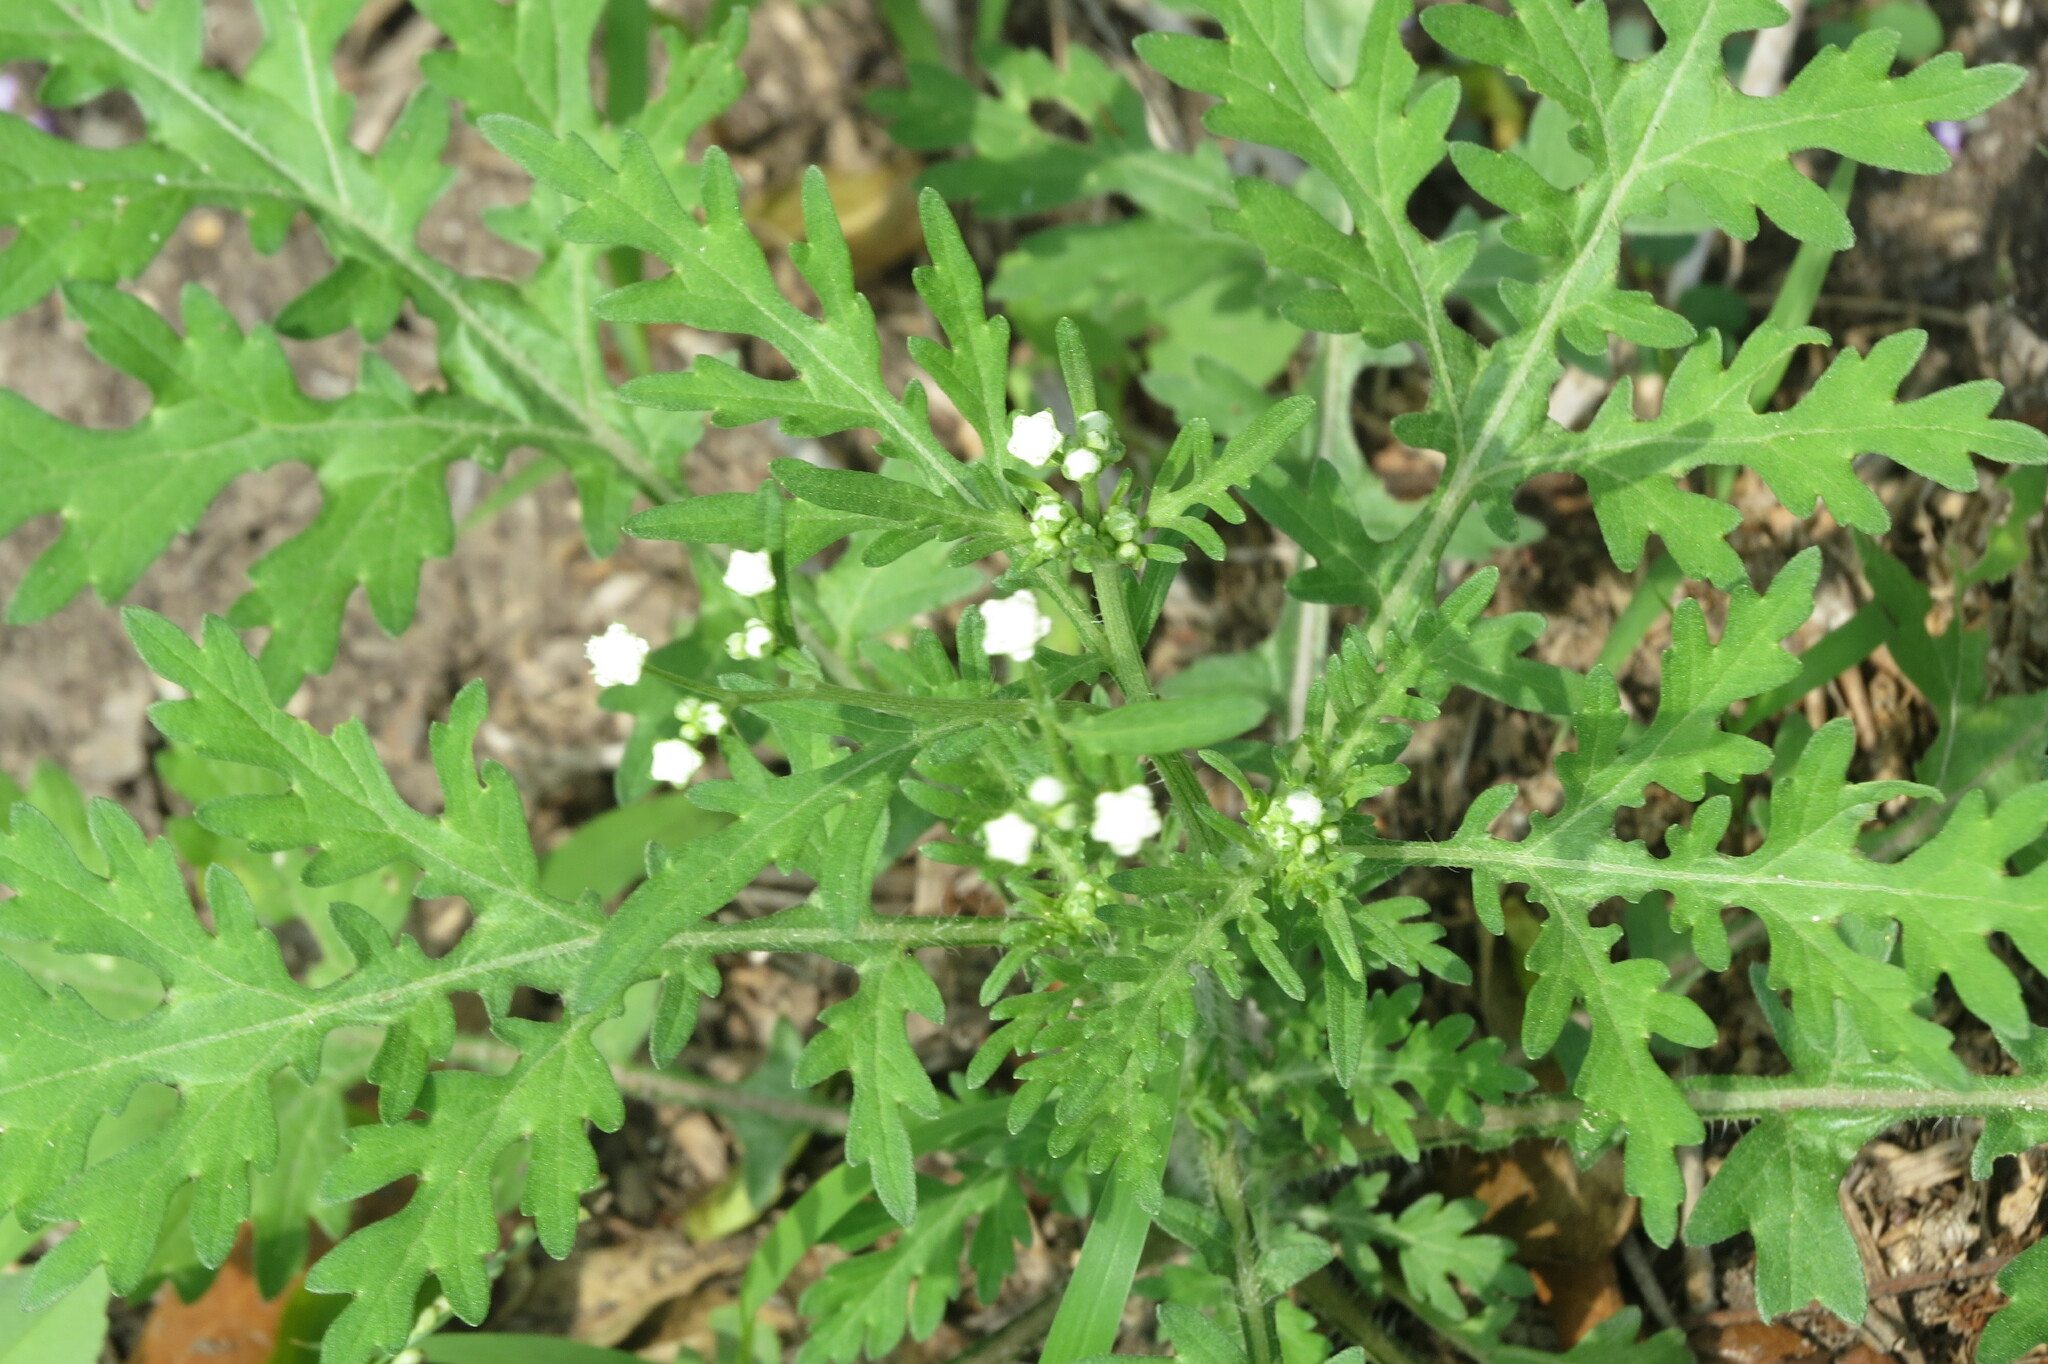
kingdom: Plantae
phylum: Tracheophyta
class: Magnoliopsida
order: Asterales
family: Asteraceae
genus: Parthenium
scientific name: Parthenium hysterophorus
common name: Santa maria feverfew
